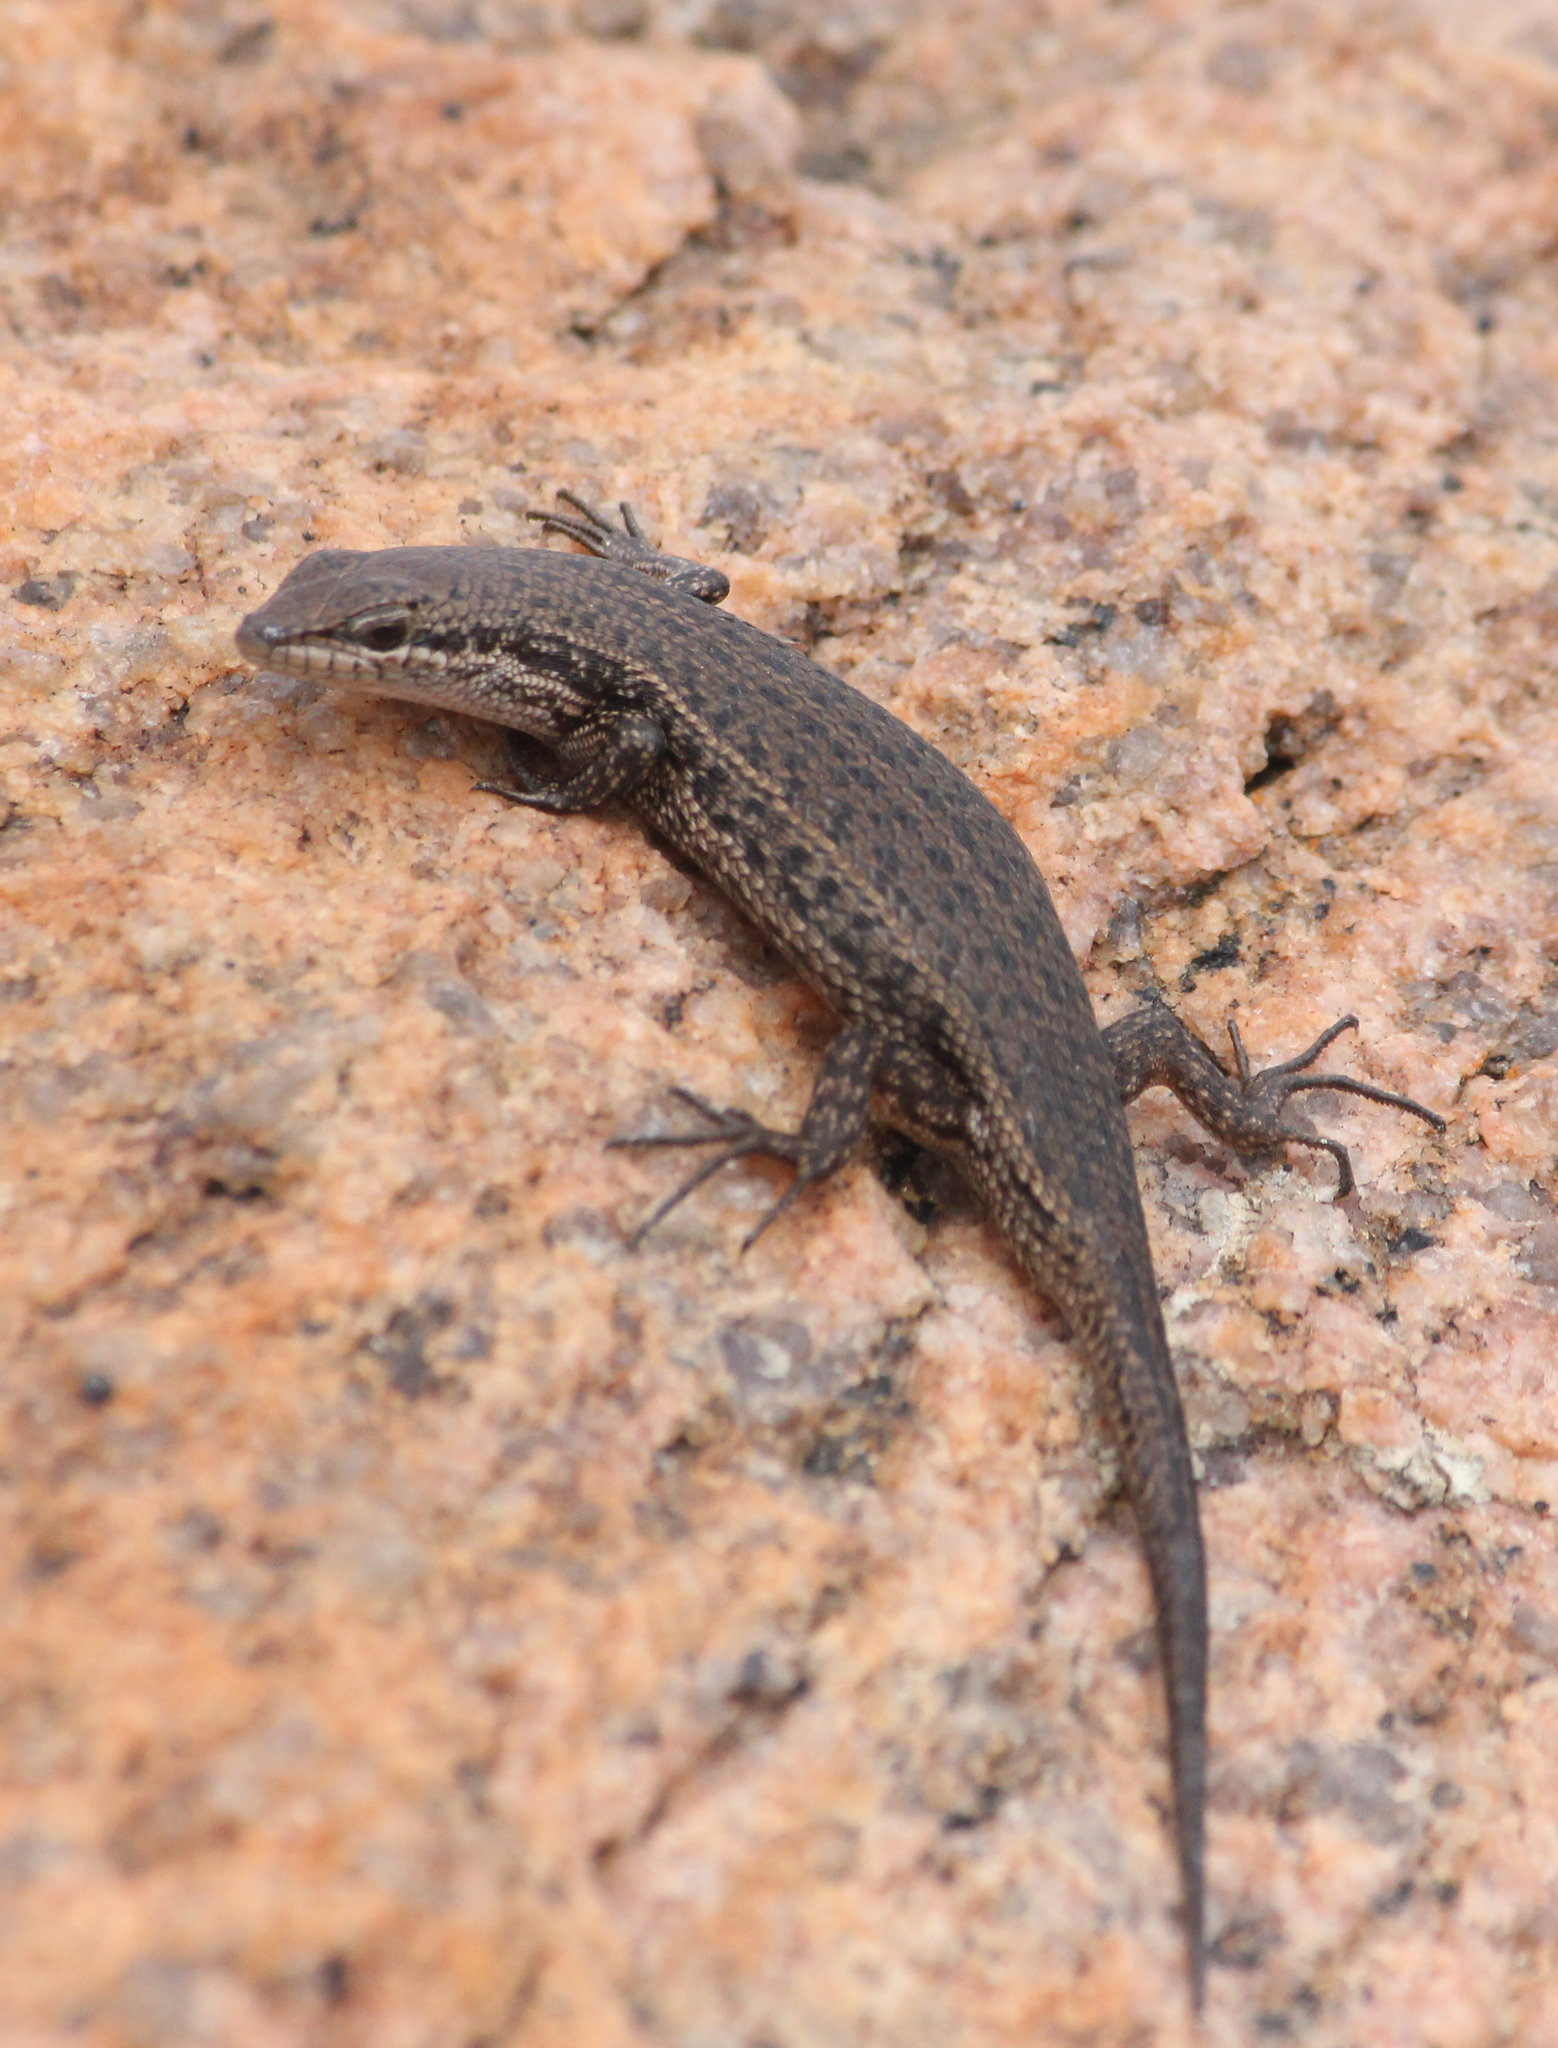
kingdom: Animalia
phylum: Chordata
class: Squamata
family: Scincidae
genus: Trachylepis
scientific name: Trachylepis variegata
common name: Variegated skink
